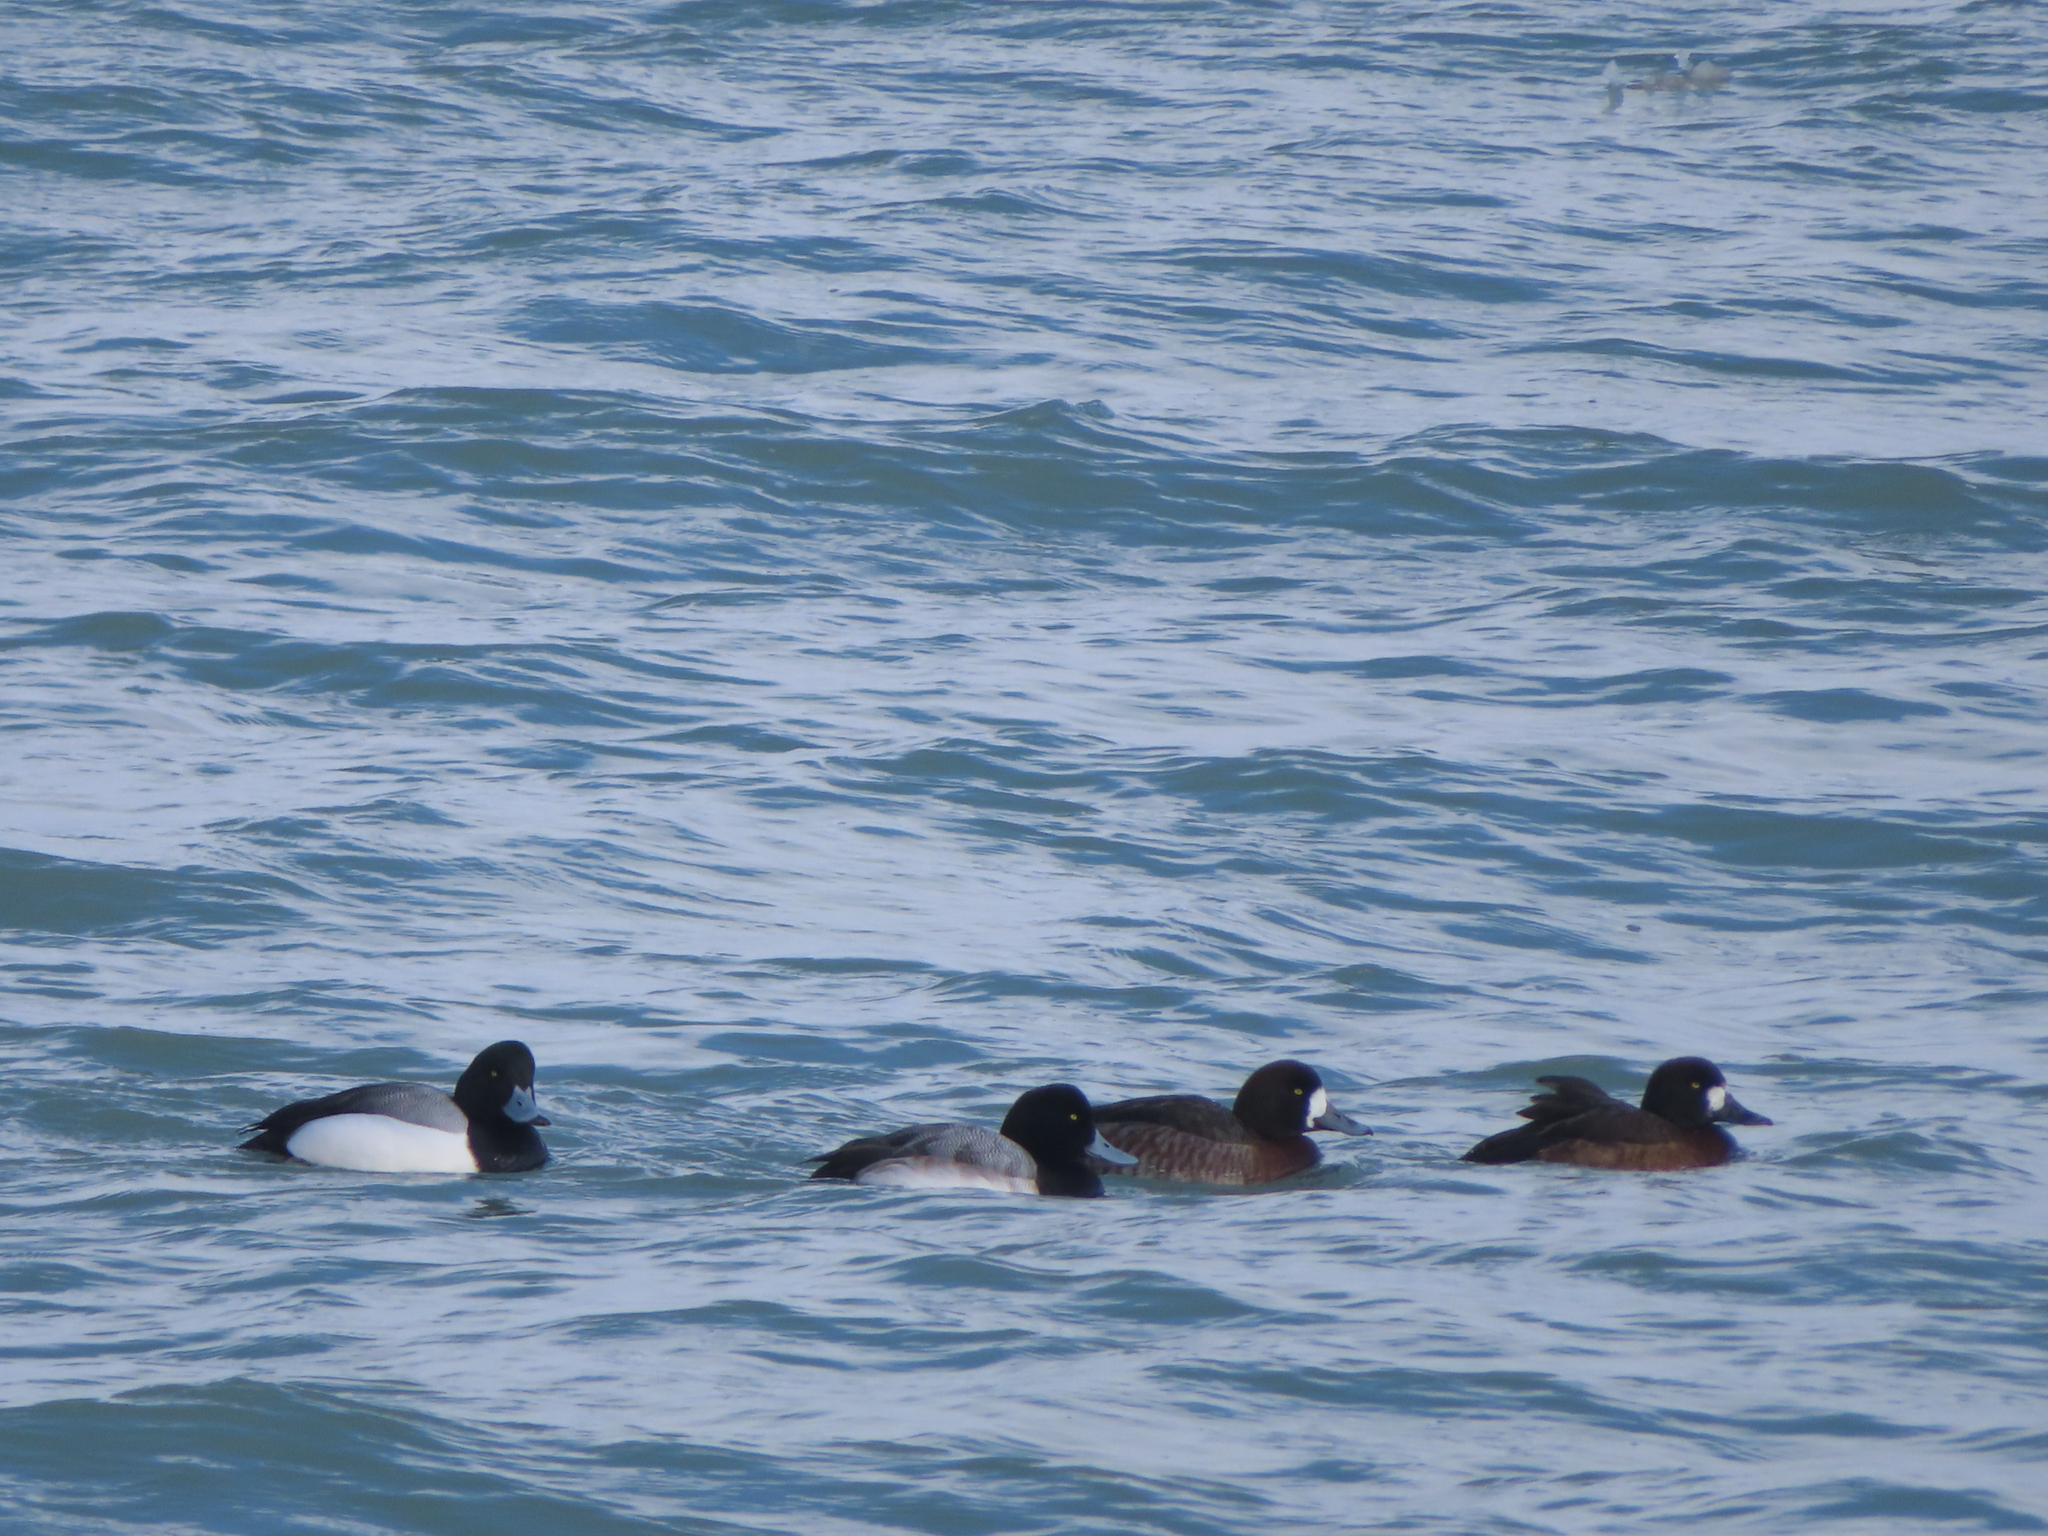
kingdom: Animalia
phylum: Chordata
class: Aves
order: Anseriformes
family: Anatidae
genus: Aythya
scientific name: Aythya marila
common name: Greater scaup
